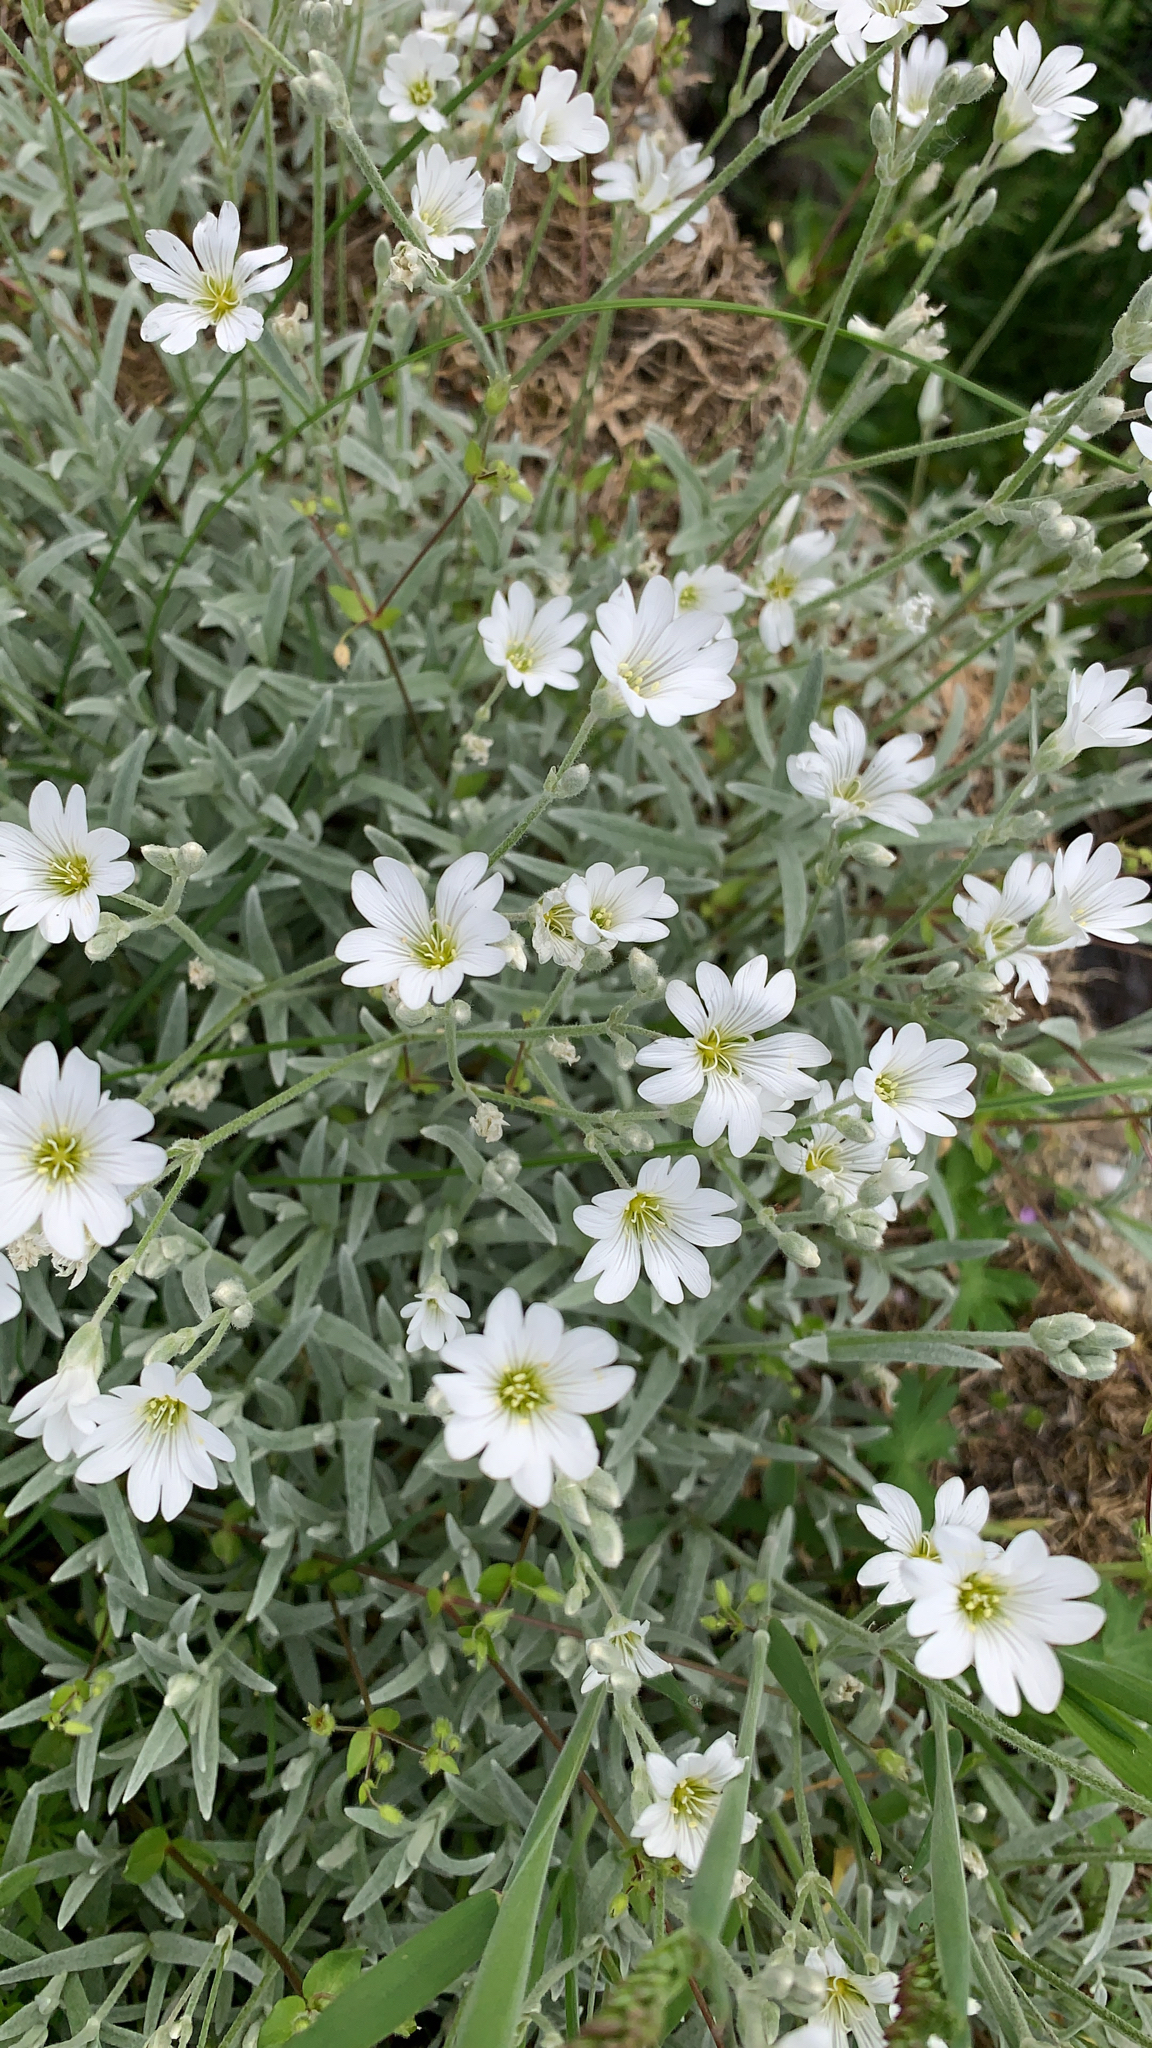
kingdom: Plantae
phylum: Tracheophyta
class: Magnoliopsida
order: Caryophyllales
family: Caryophyllaceae
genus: Cerastium
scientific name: Cerastium tomentosum
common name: Snow-in-summer
